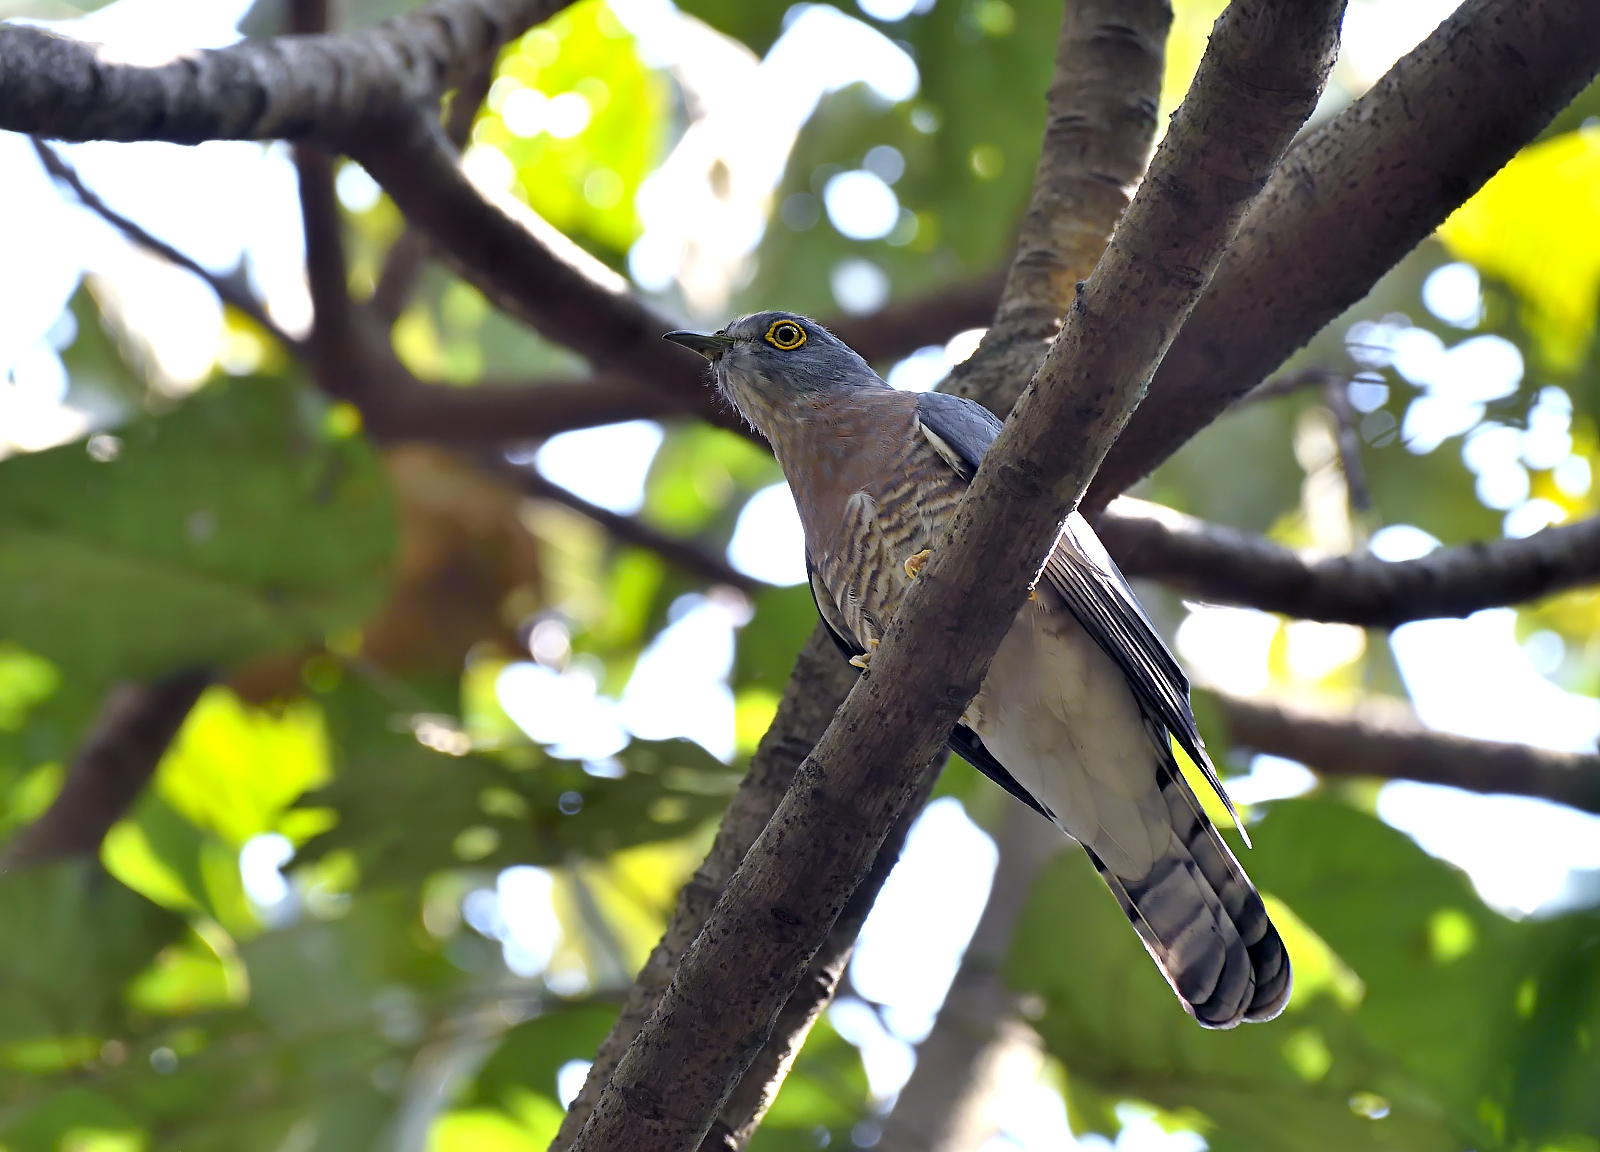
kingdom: Animalia
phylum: Chordata
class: Aves
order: Cuculiformes
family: Cuculidae
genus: Cuculus
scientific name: Cuculus varius
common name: Common hawk cuckoo
